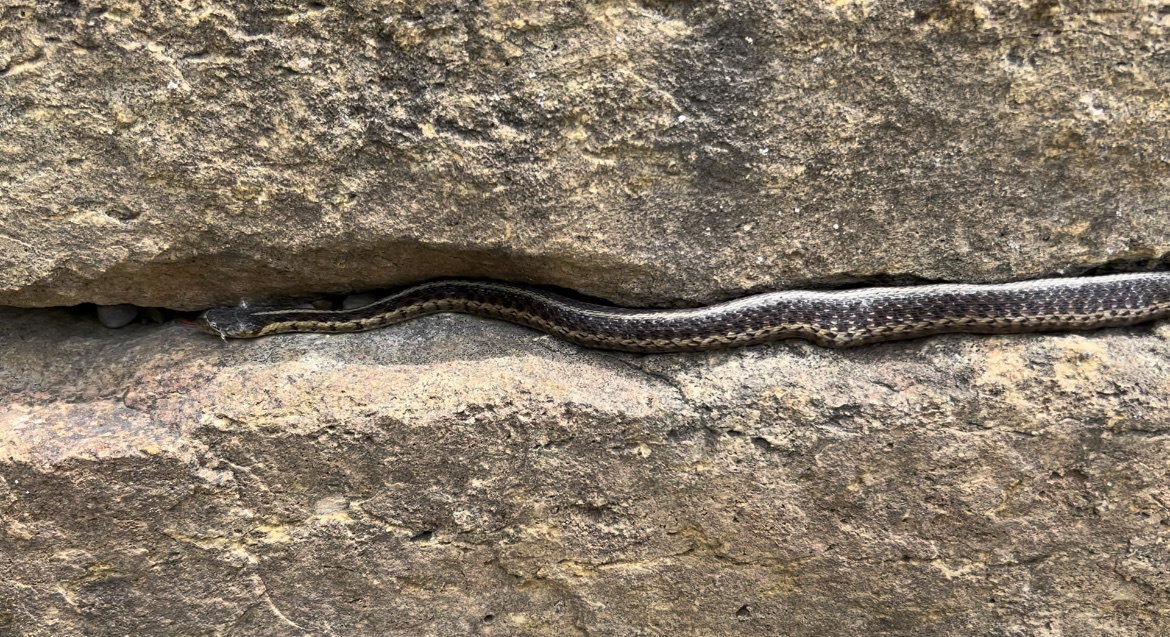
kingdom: Animalia
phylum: Chordata
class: Squamata
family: Colubridae
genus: Thamnophis
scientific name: Thamnophis sirtalis
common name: Common garter snake
